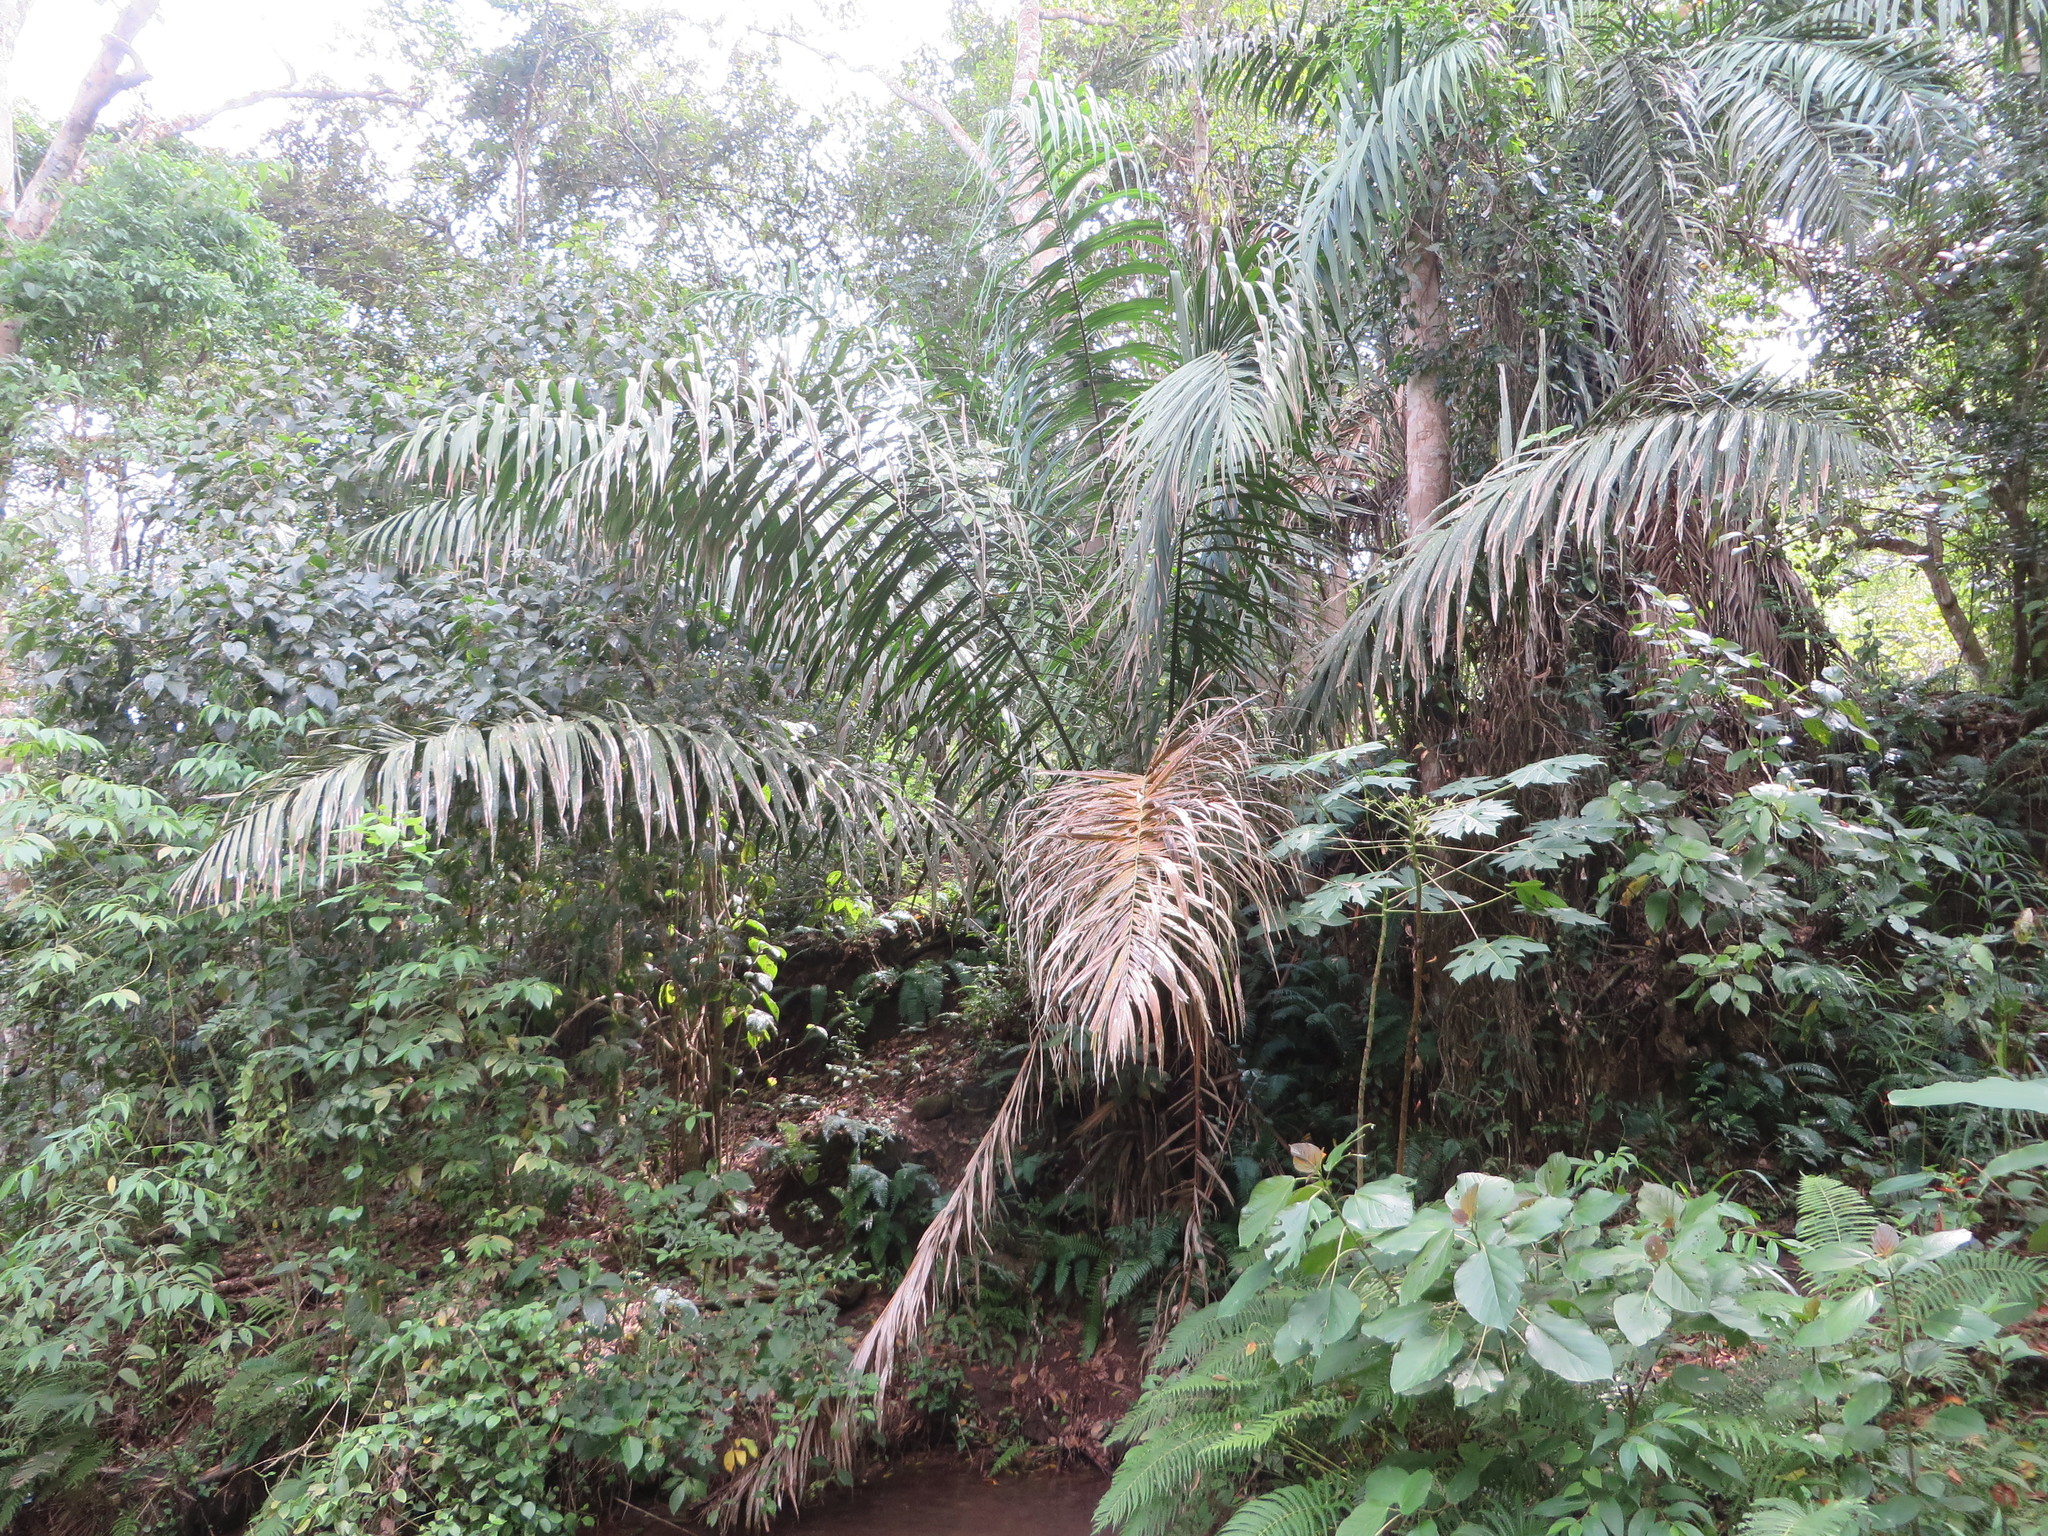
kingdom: Plantae
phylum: Tracheophyta
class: Liliopsida
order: Arecales
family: Arecaceae
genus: Phytelephas
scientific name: Phytelephas aequatorialis
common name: Ivory palm
